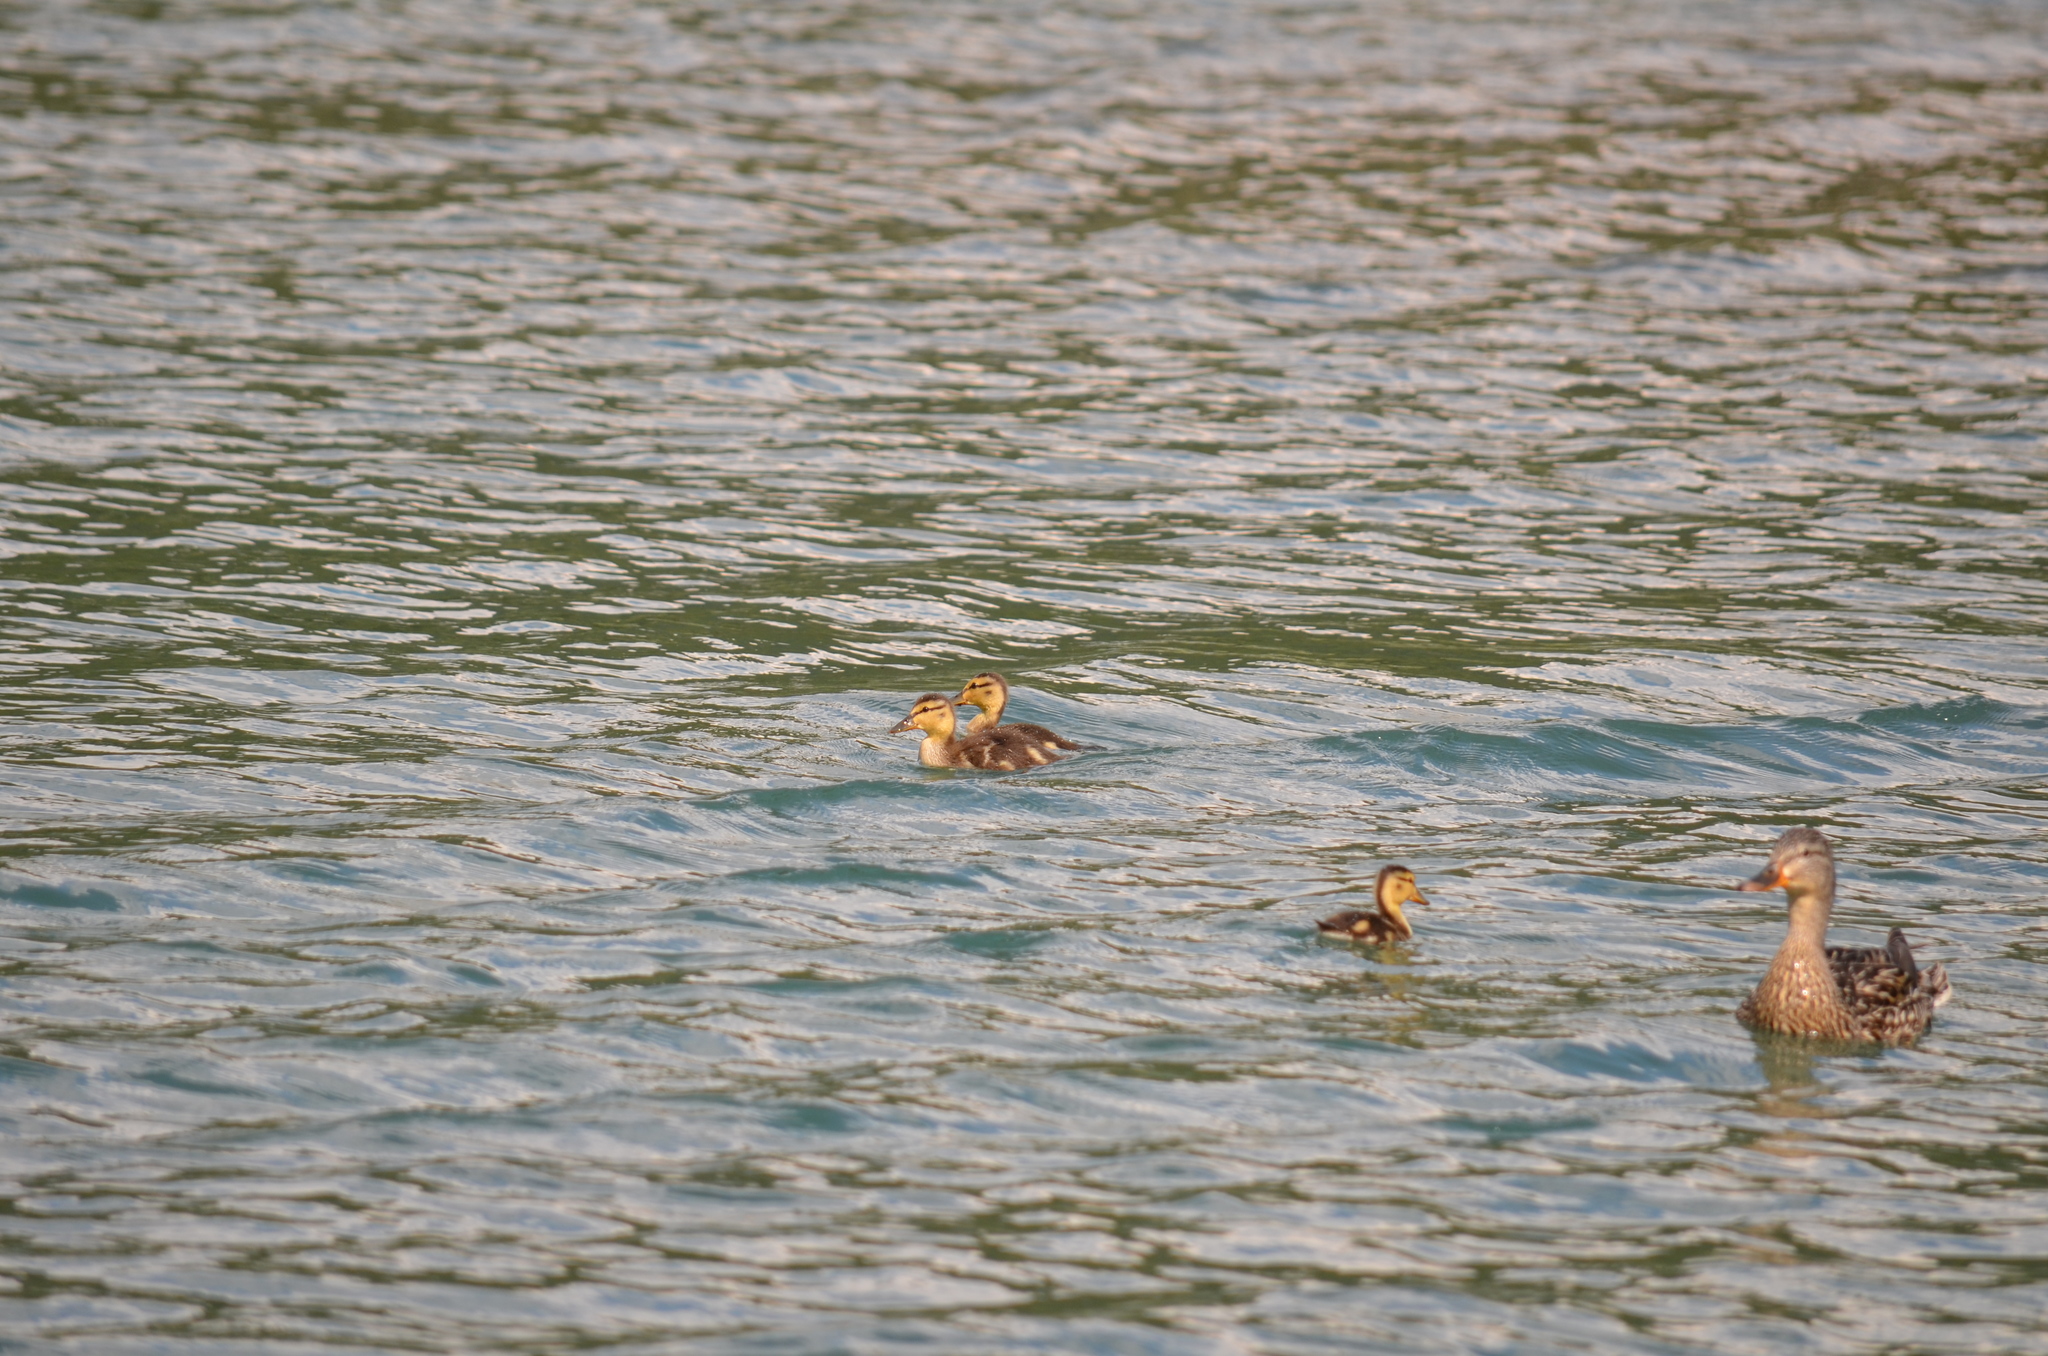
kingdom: Animalia
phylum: Chordata
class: Aves
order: Anseriformes
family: Anatidae
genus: Anas
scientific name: Anas platyrhynchos
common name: Mallard
